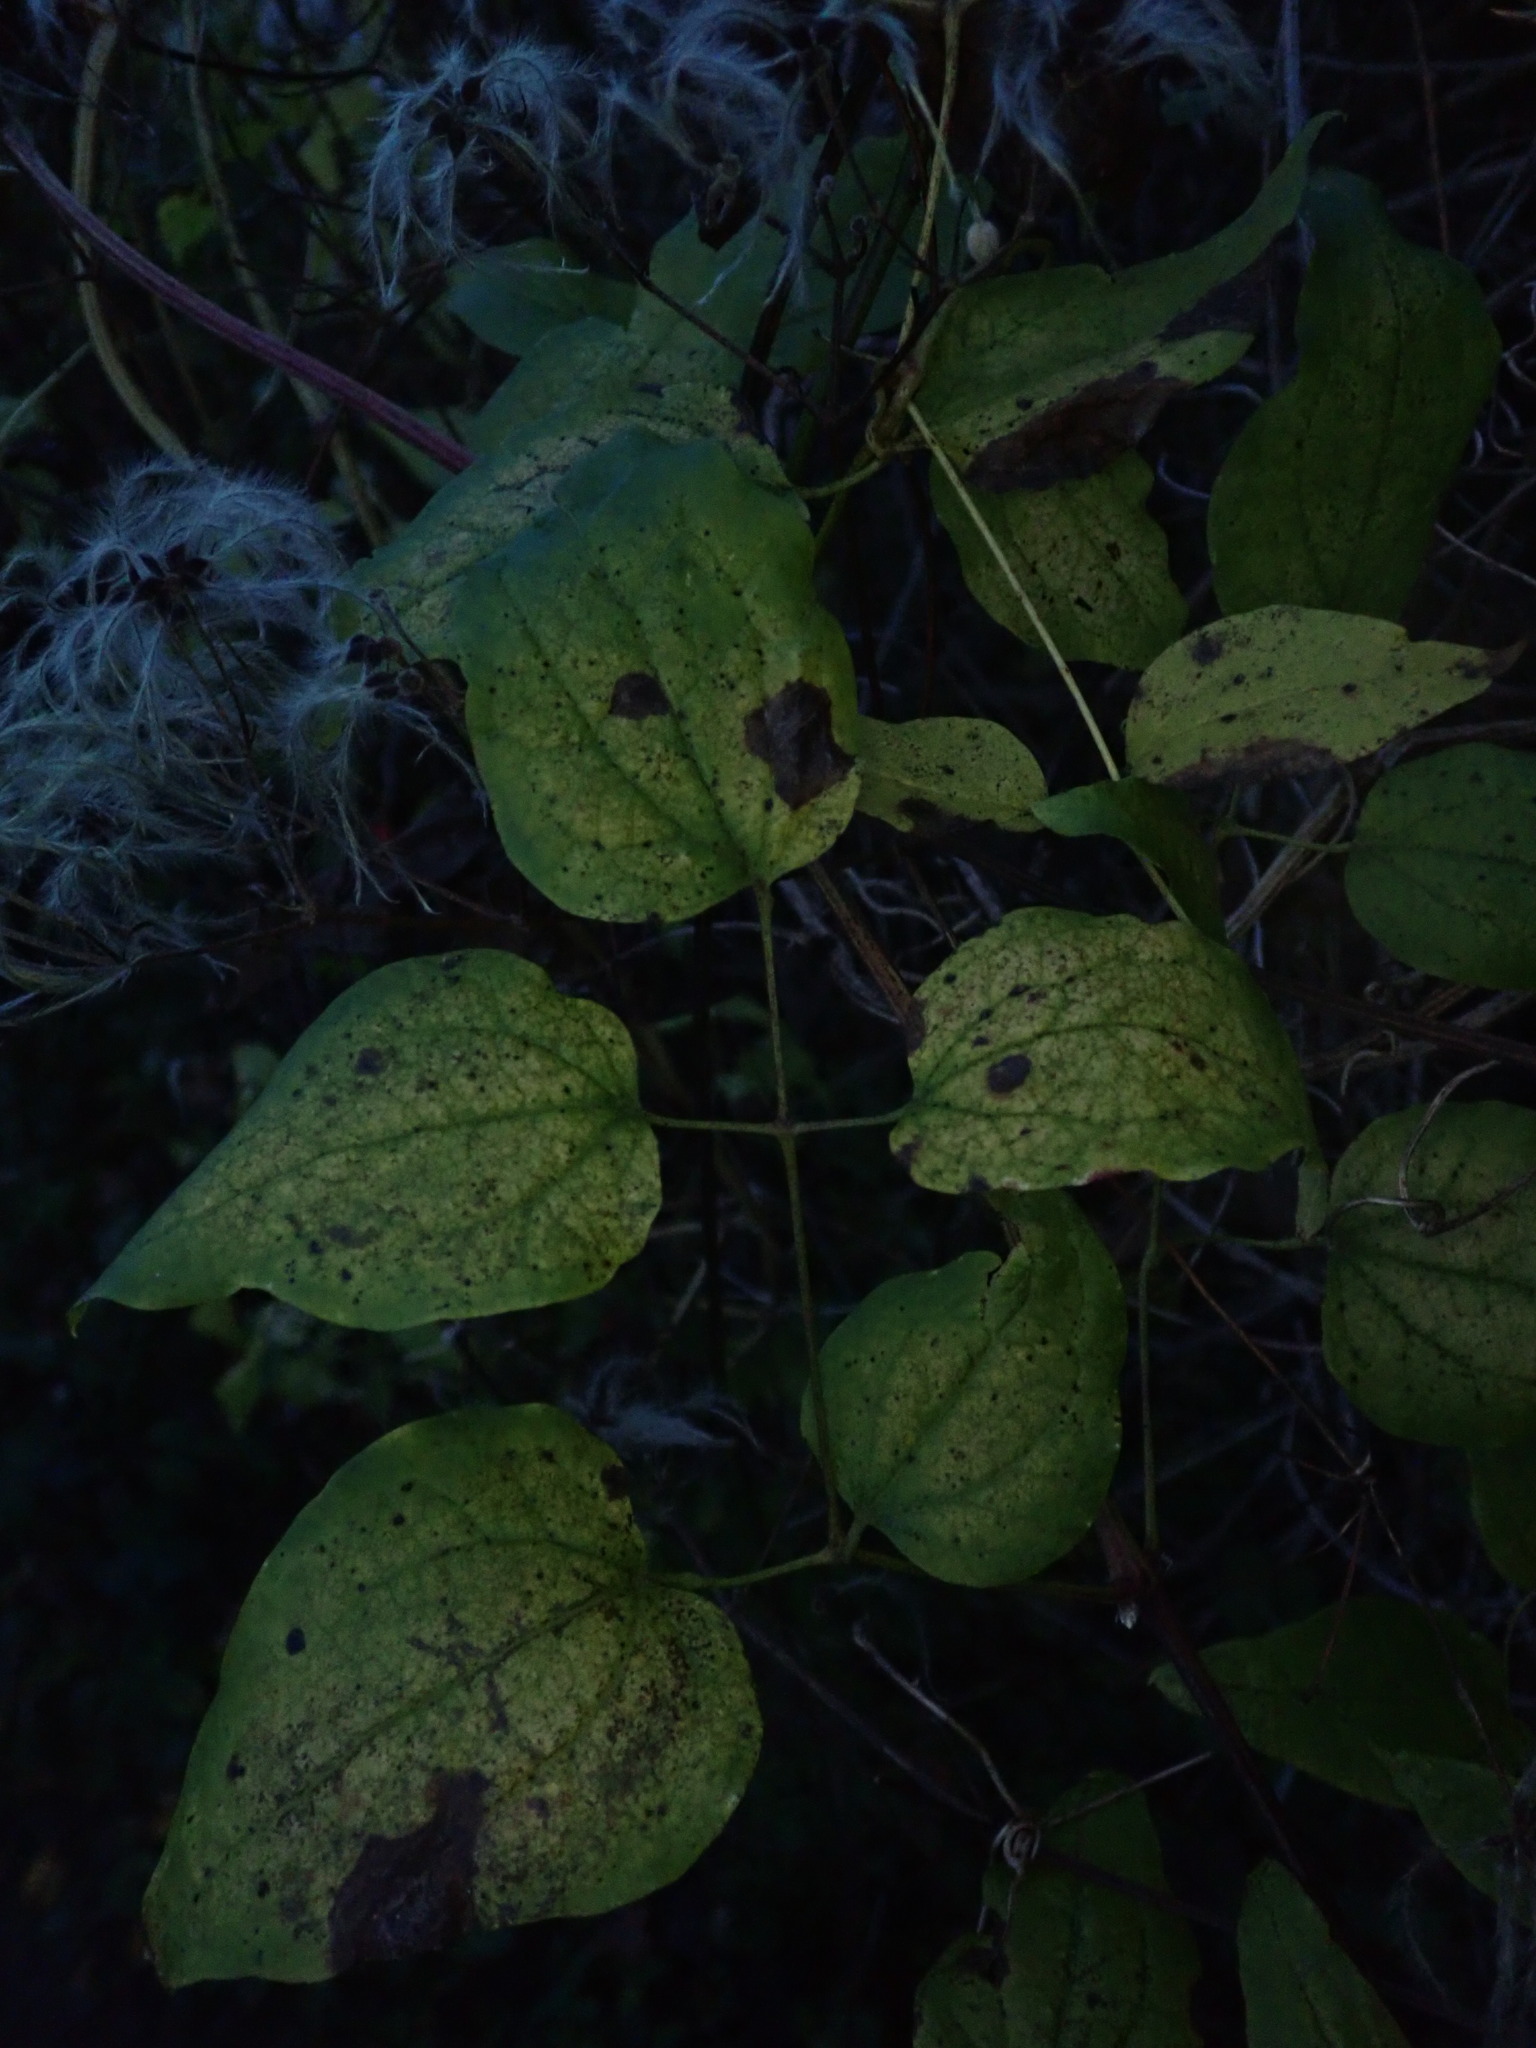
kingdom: Plantae
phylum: Tracheophyta
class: Magnoliopsida
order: Ranunculales
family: Ranunculaceae
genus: Clematis
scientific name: Clematis vitalba
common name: Evergreen clematis
